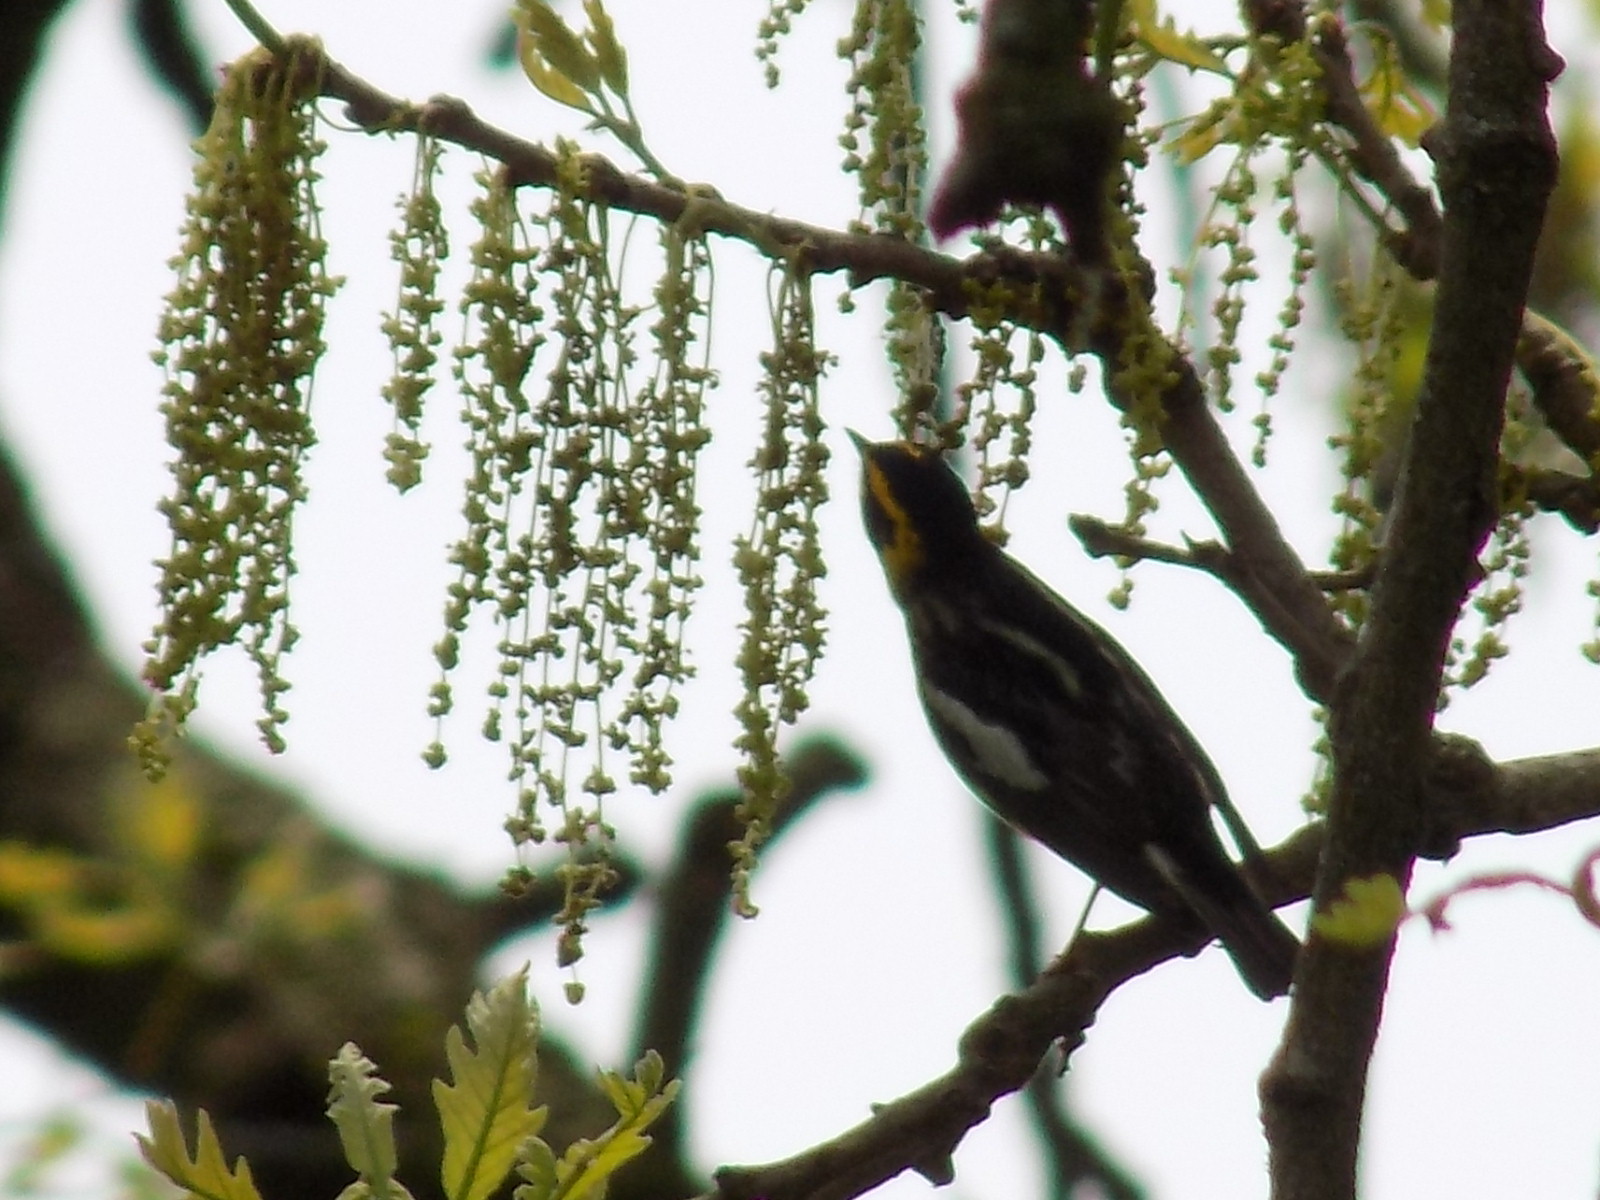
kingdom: Animalia
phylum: Chordata
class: Aves
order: Passeriformes
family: Parulidae
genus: Setophaga
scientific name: Setophaga fusca
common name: Blackburnian warbler
